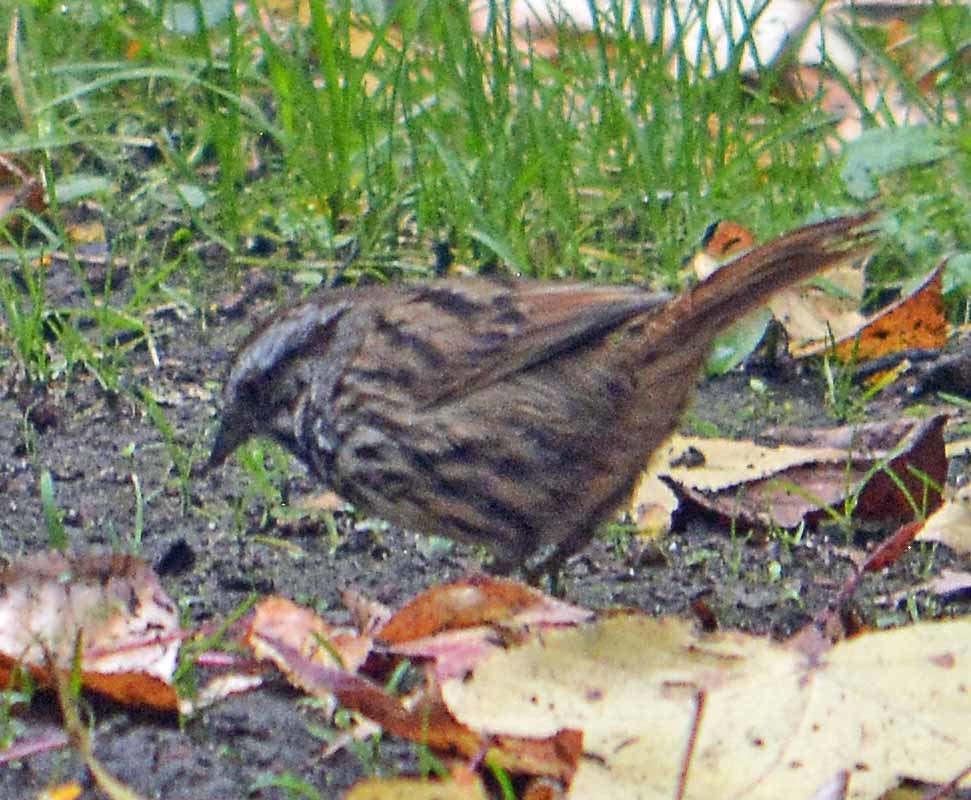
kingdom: Animalia
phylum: Chordata
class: Aves
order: Passeriformes
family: Passerellidae
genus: Melospiza
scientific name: Melospiza melodia
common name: Song sparrow
